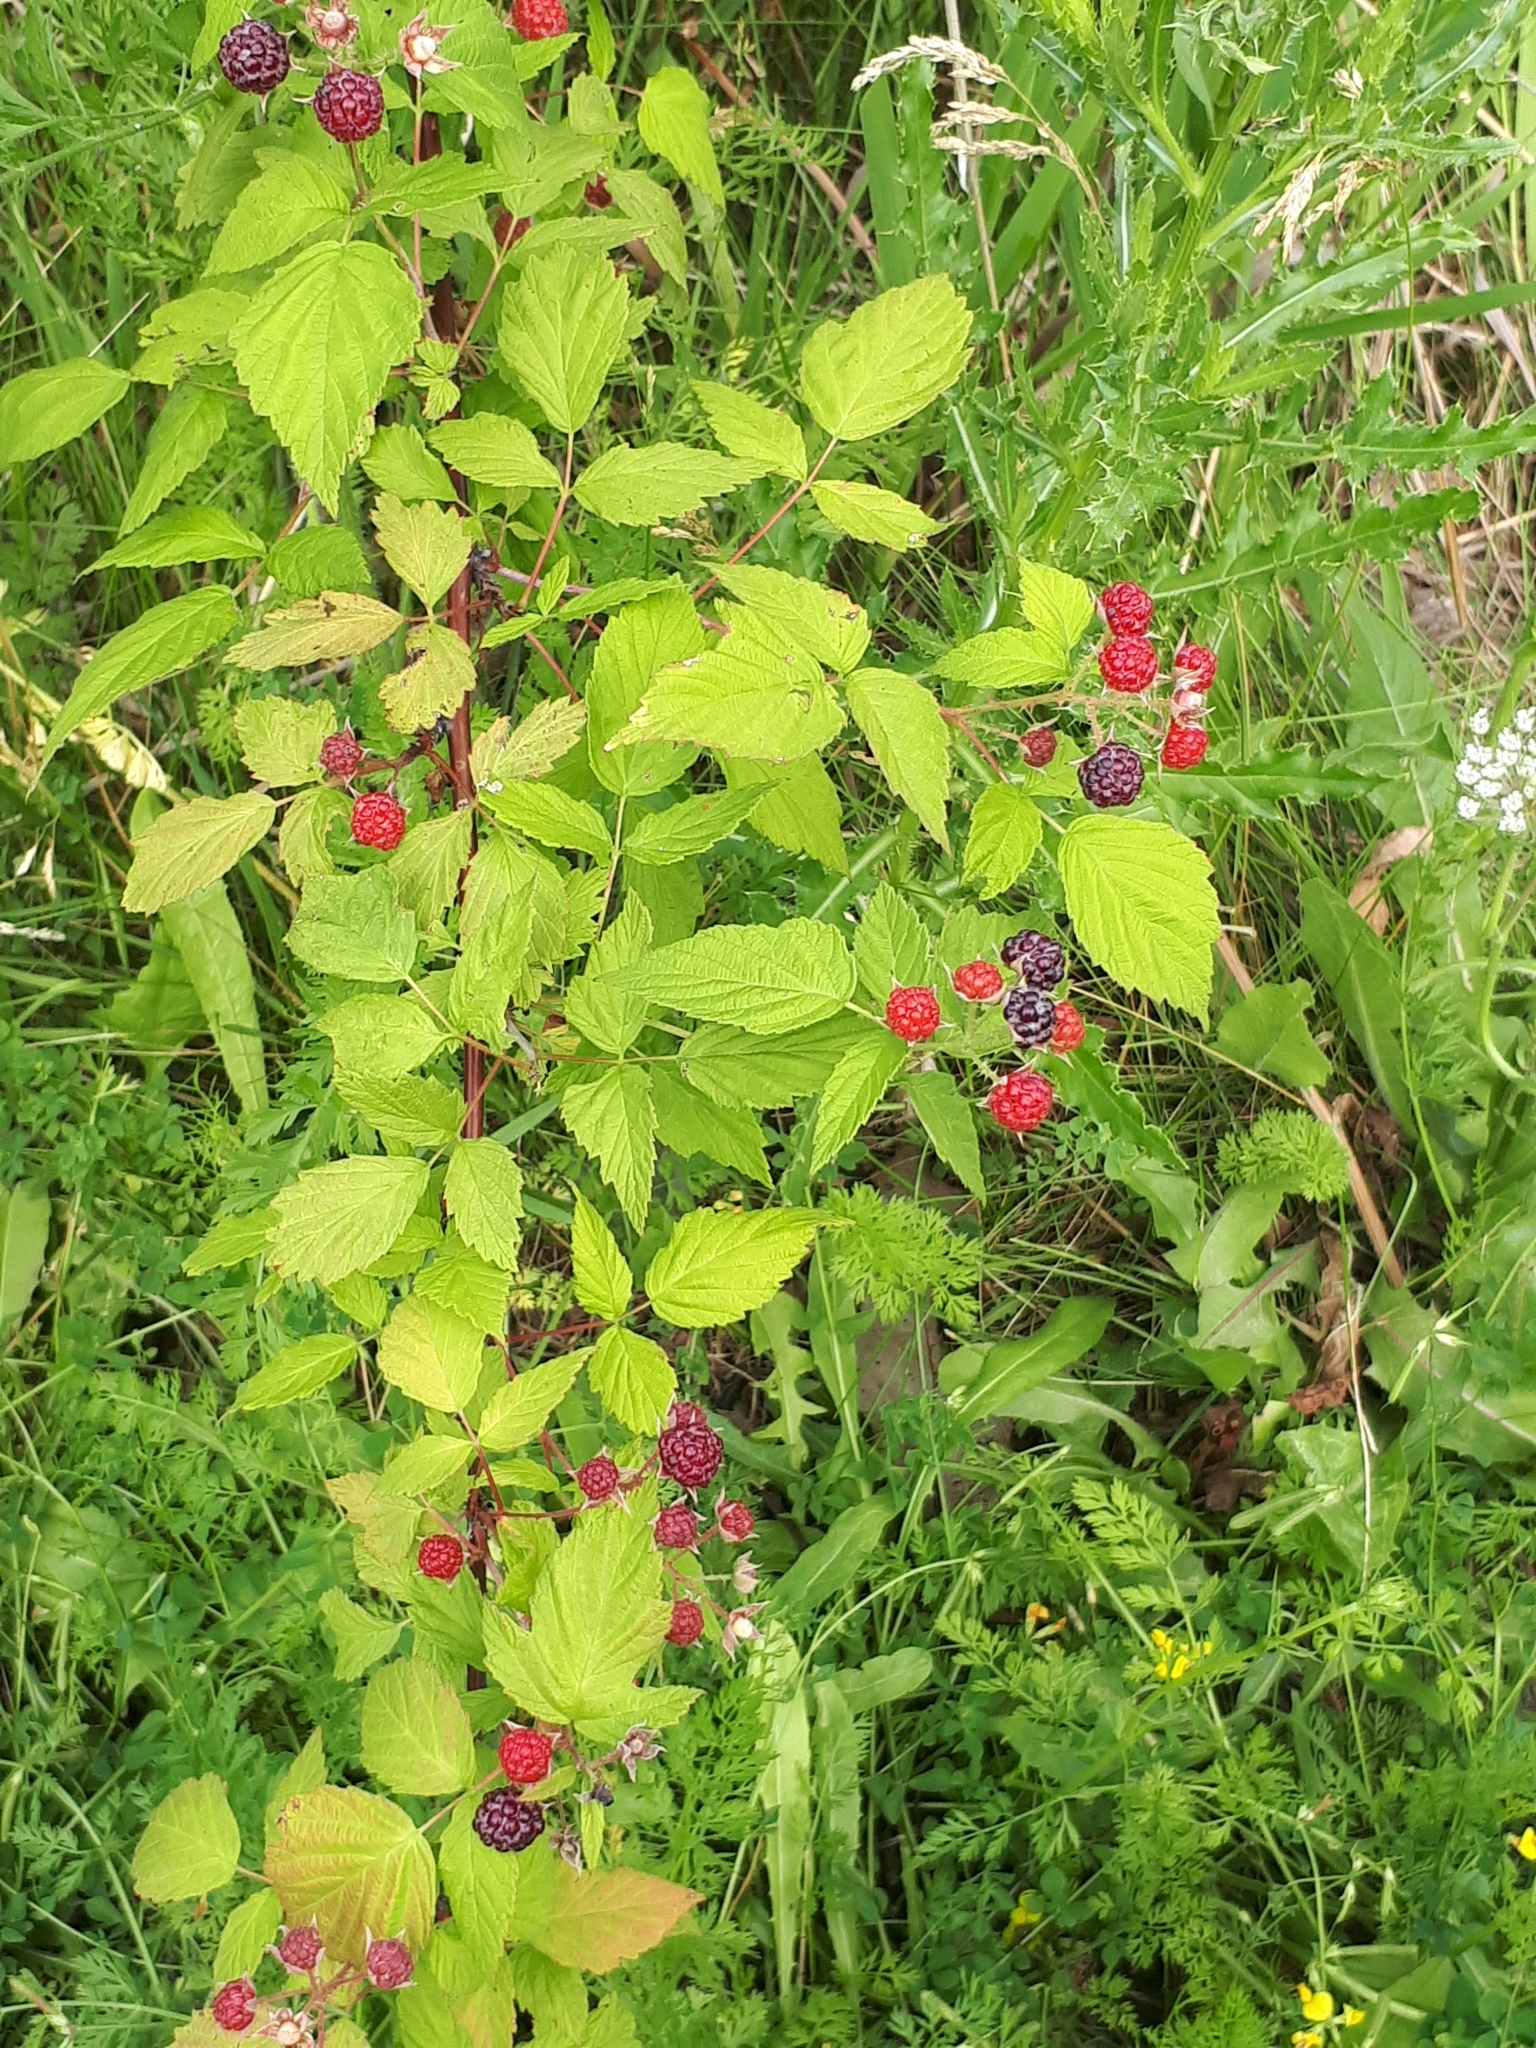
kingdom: Plantae
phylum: Tracheophyta
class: Magnoliopsida
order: Rosales
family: Rosaceae
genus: Rubus
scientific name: Rubus occidentalis
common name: Black raspberry
